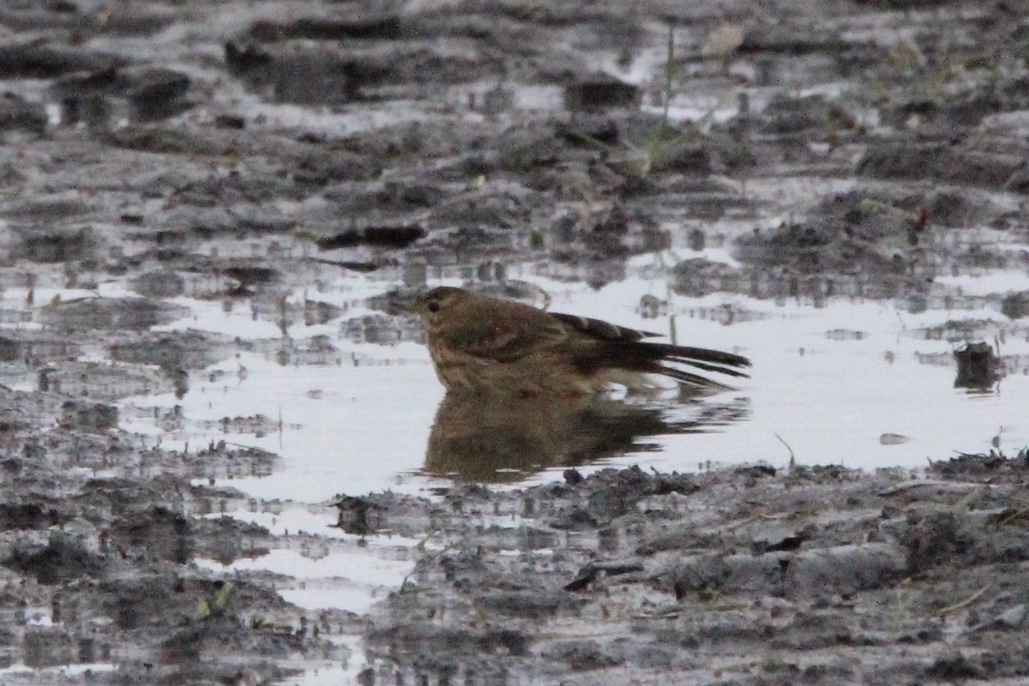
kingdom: Animalia
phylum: Chordata
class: Aves
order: Passeriformes
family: Motacillidae
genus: Anthus
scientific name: Anthus rubescens
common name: Buff-bellied pipit
